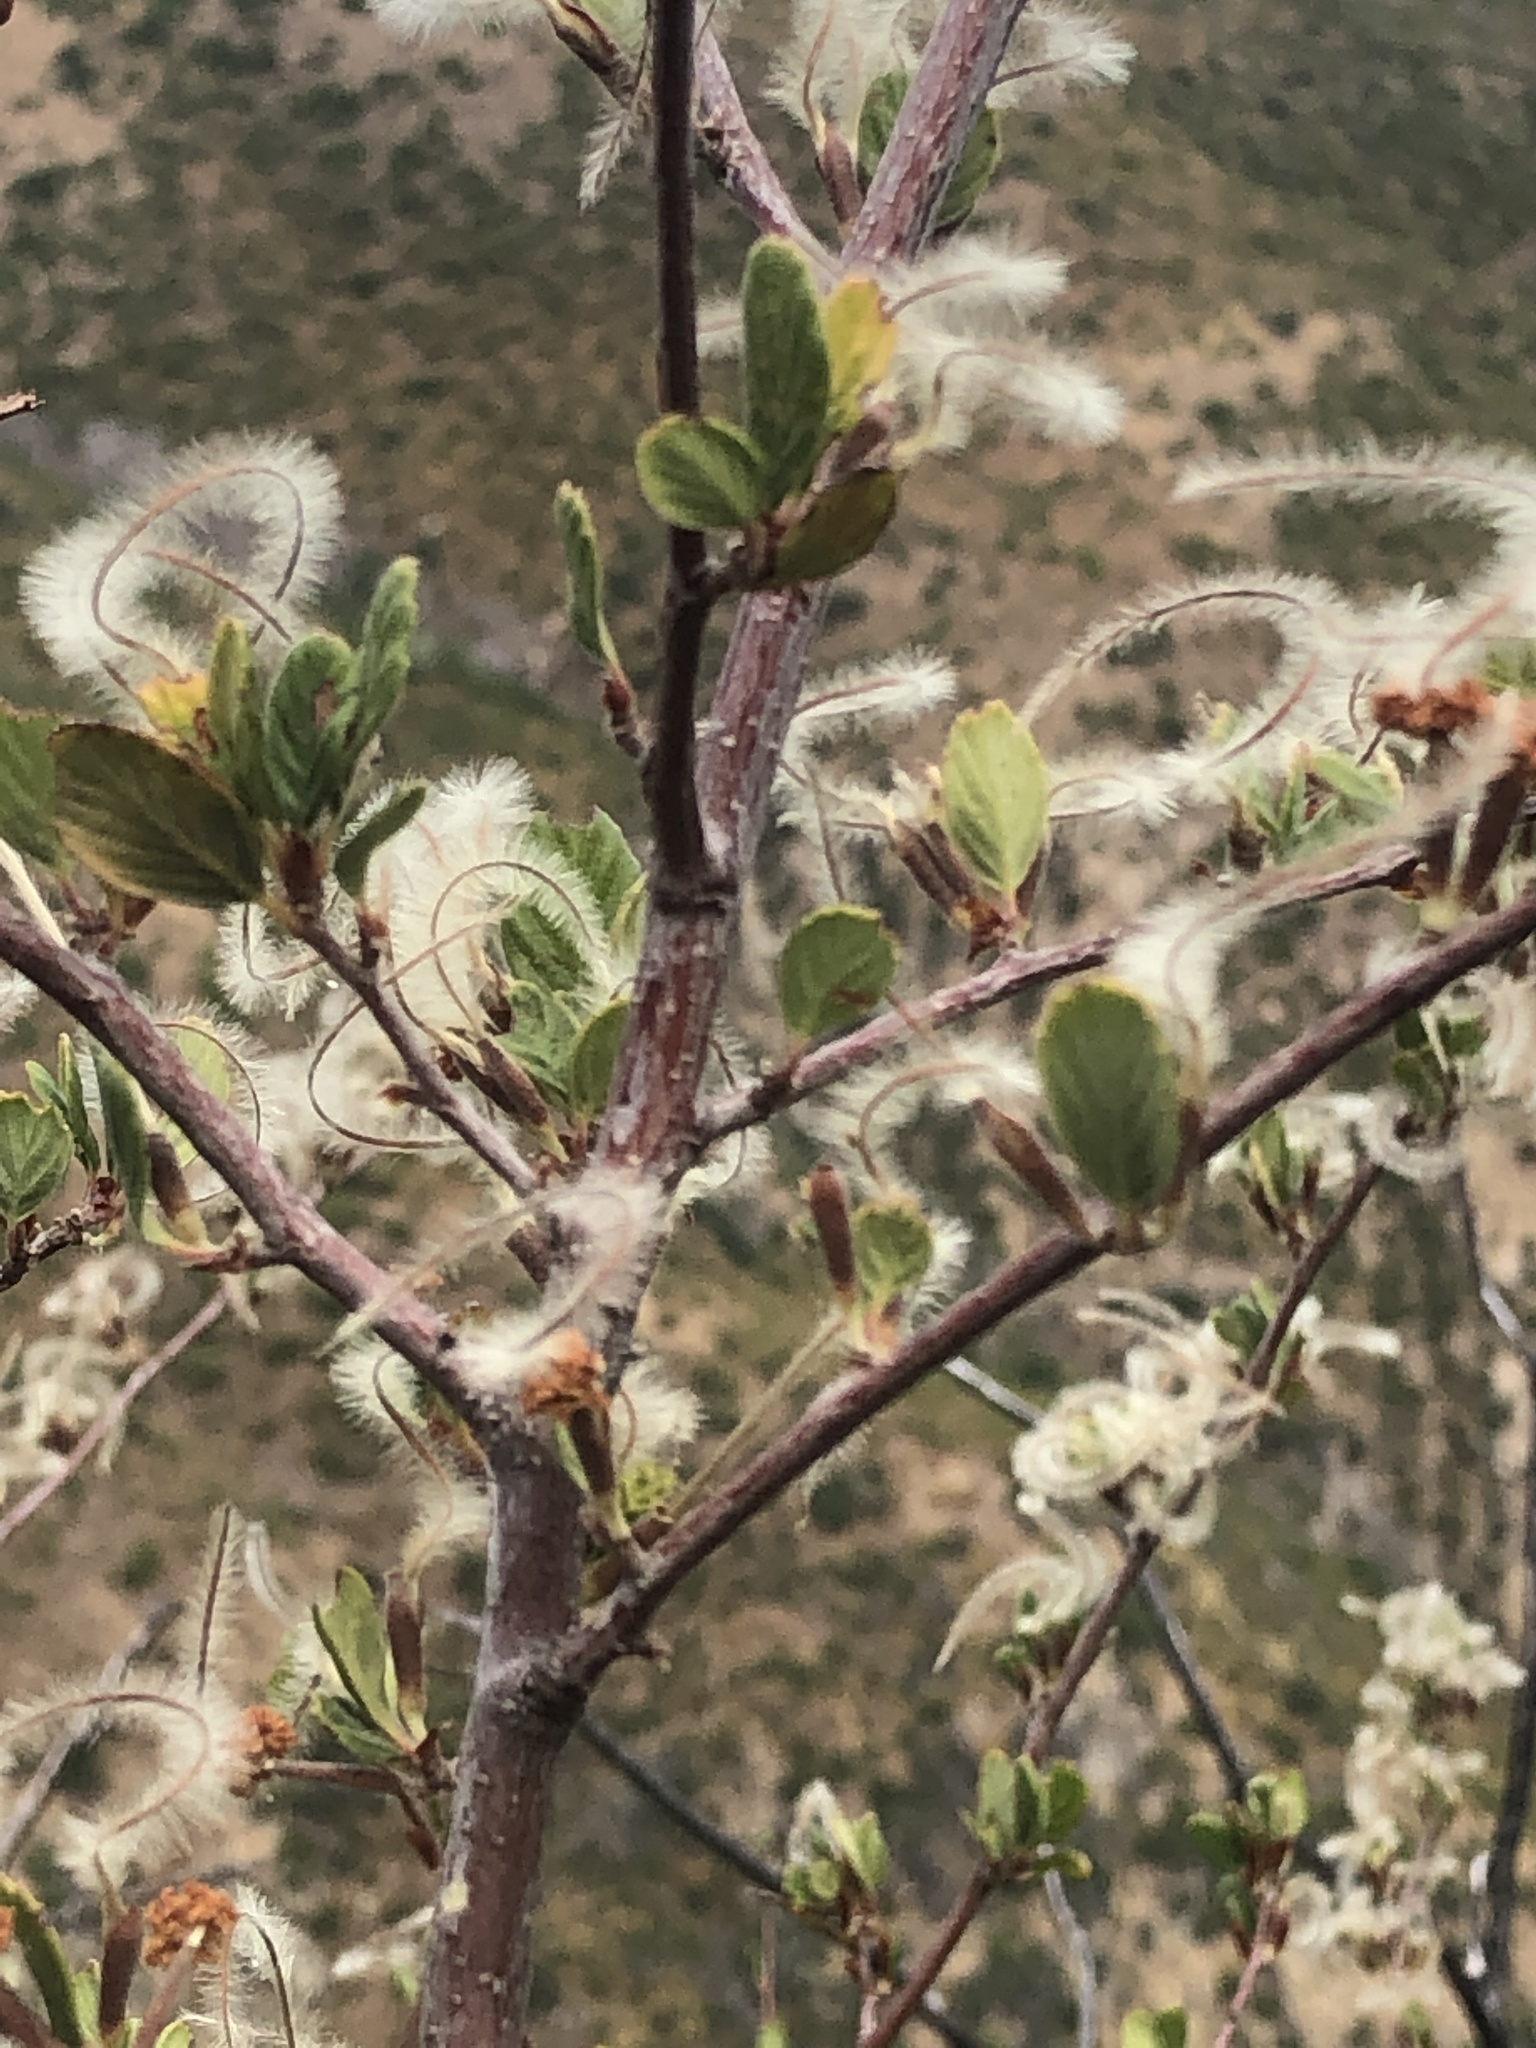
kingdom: Plantae
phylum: Tracheophyta
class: Magnoliopsida
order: Rosales
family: Rosaceae
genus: Cercocarpus
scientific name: Cercocarpus betuloides
